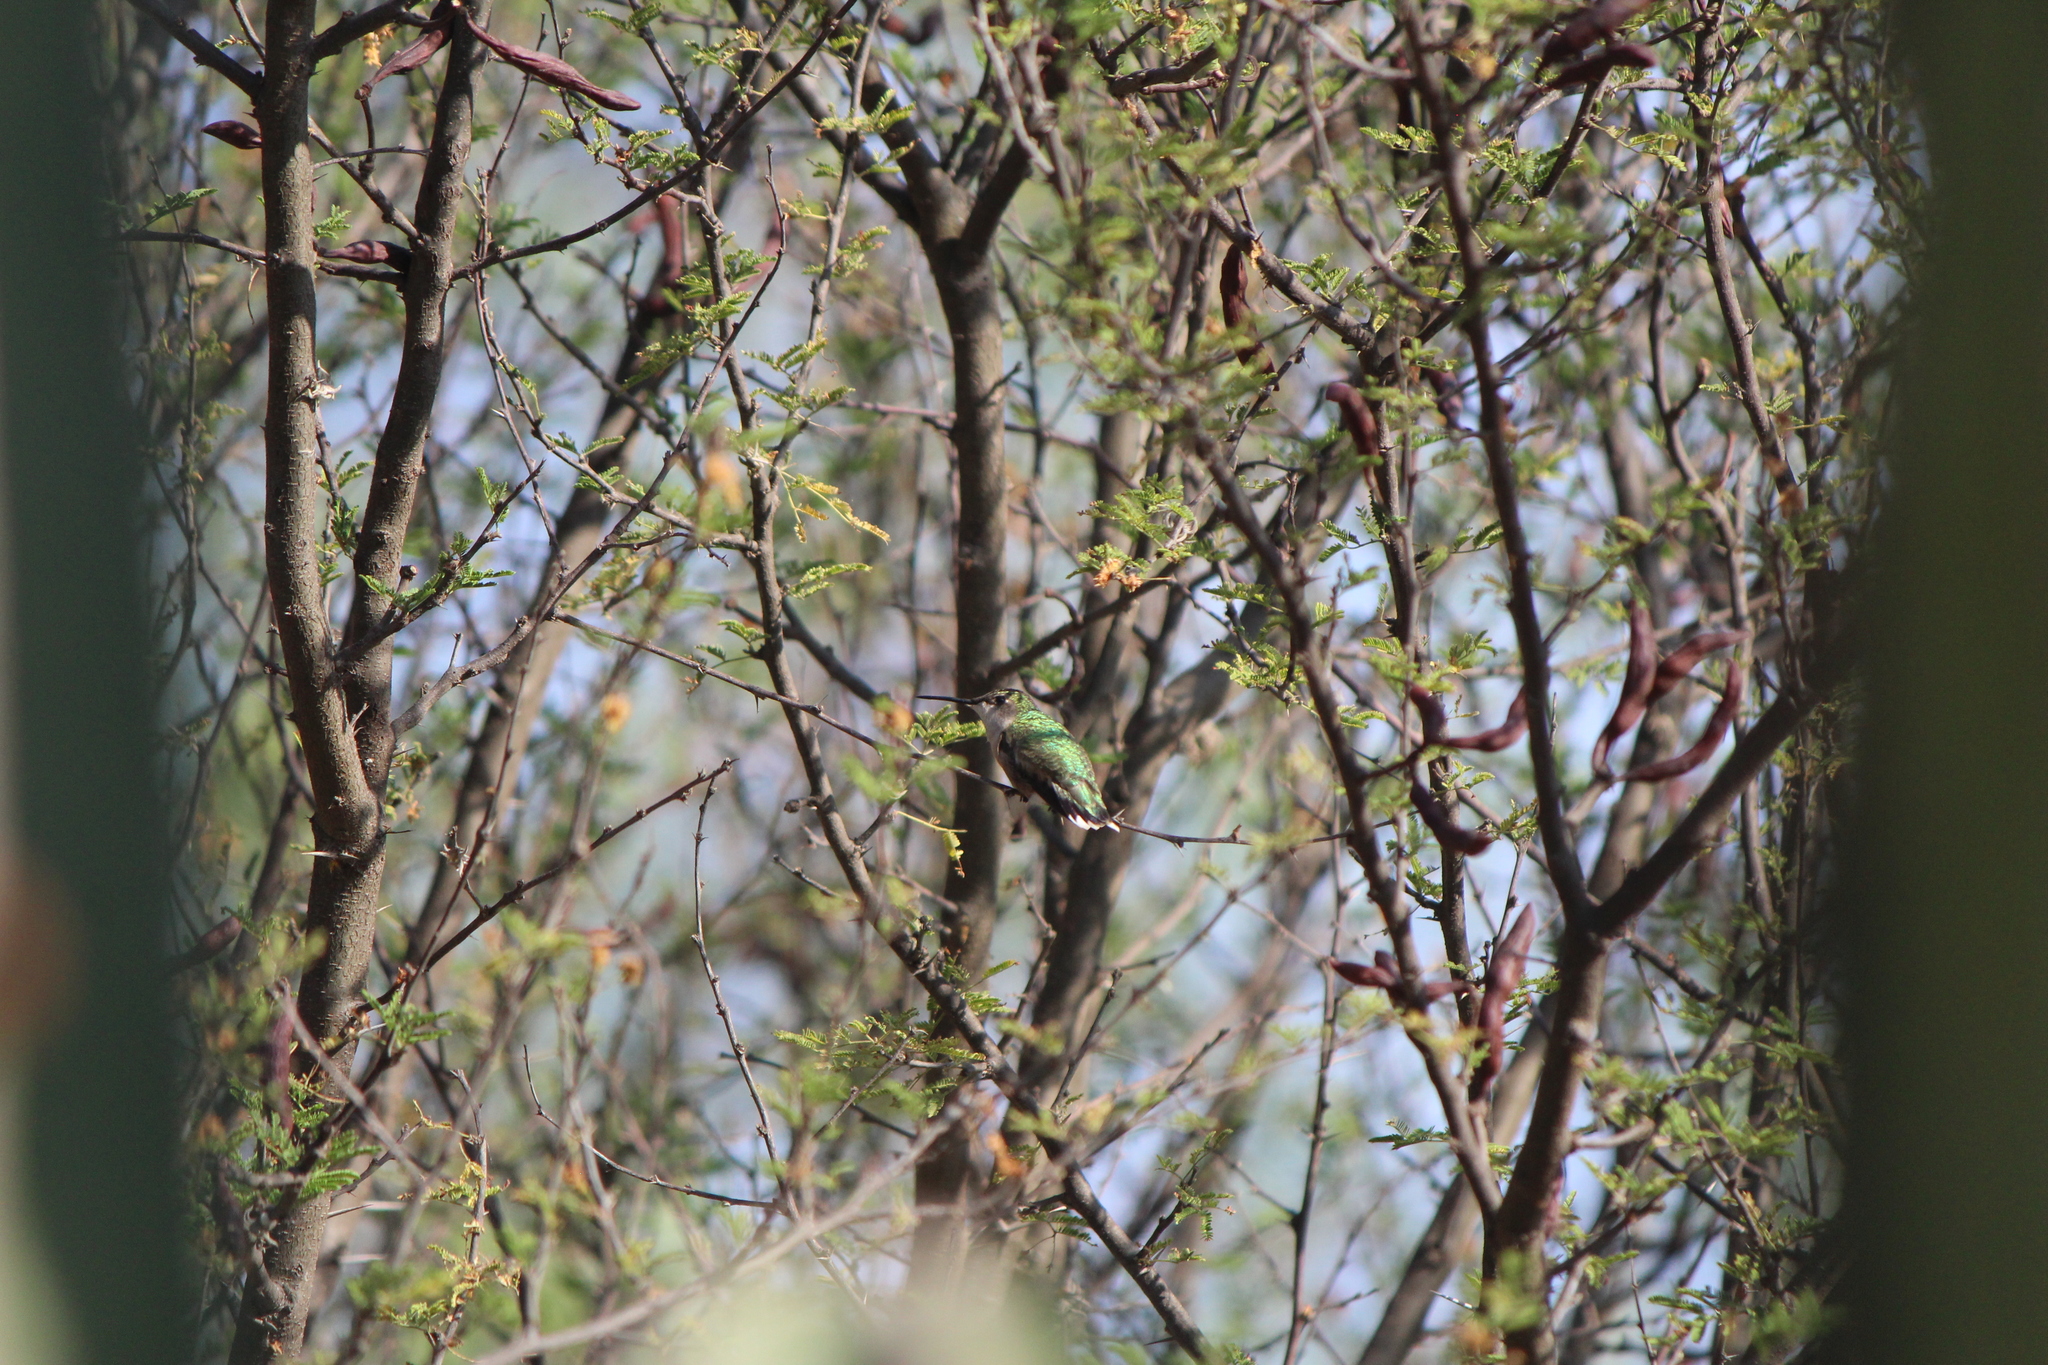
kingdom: Animalia
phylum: Chordata
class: Aves
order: Apodiformes
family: Trochilidae
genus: Archilochus
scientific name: Archilochus colubris
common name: Ruby-throated hummingbird
